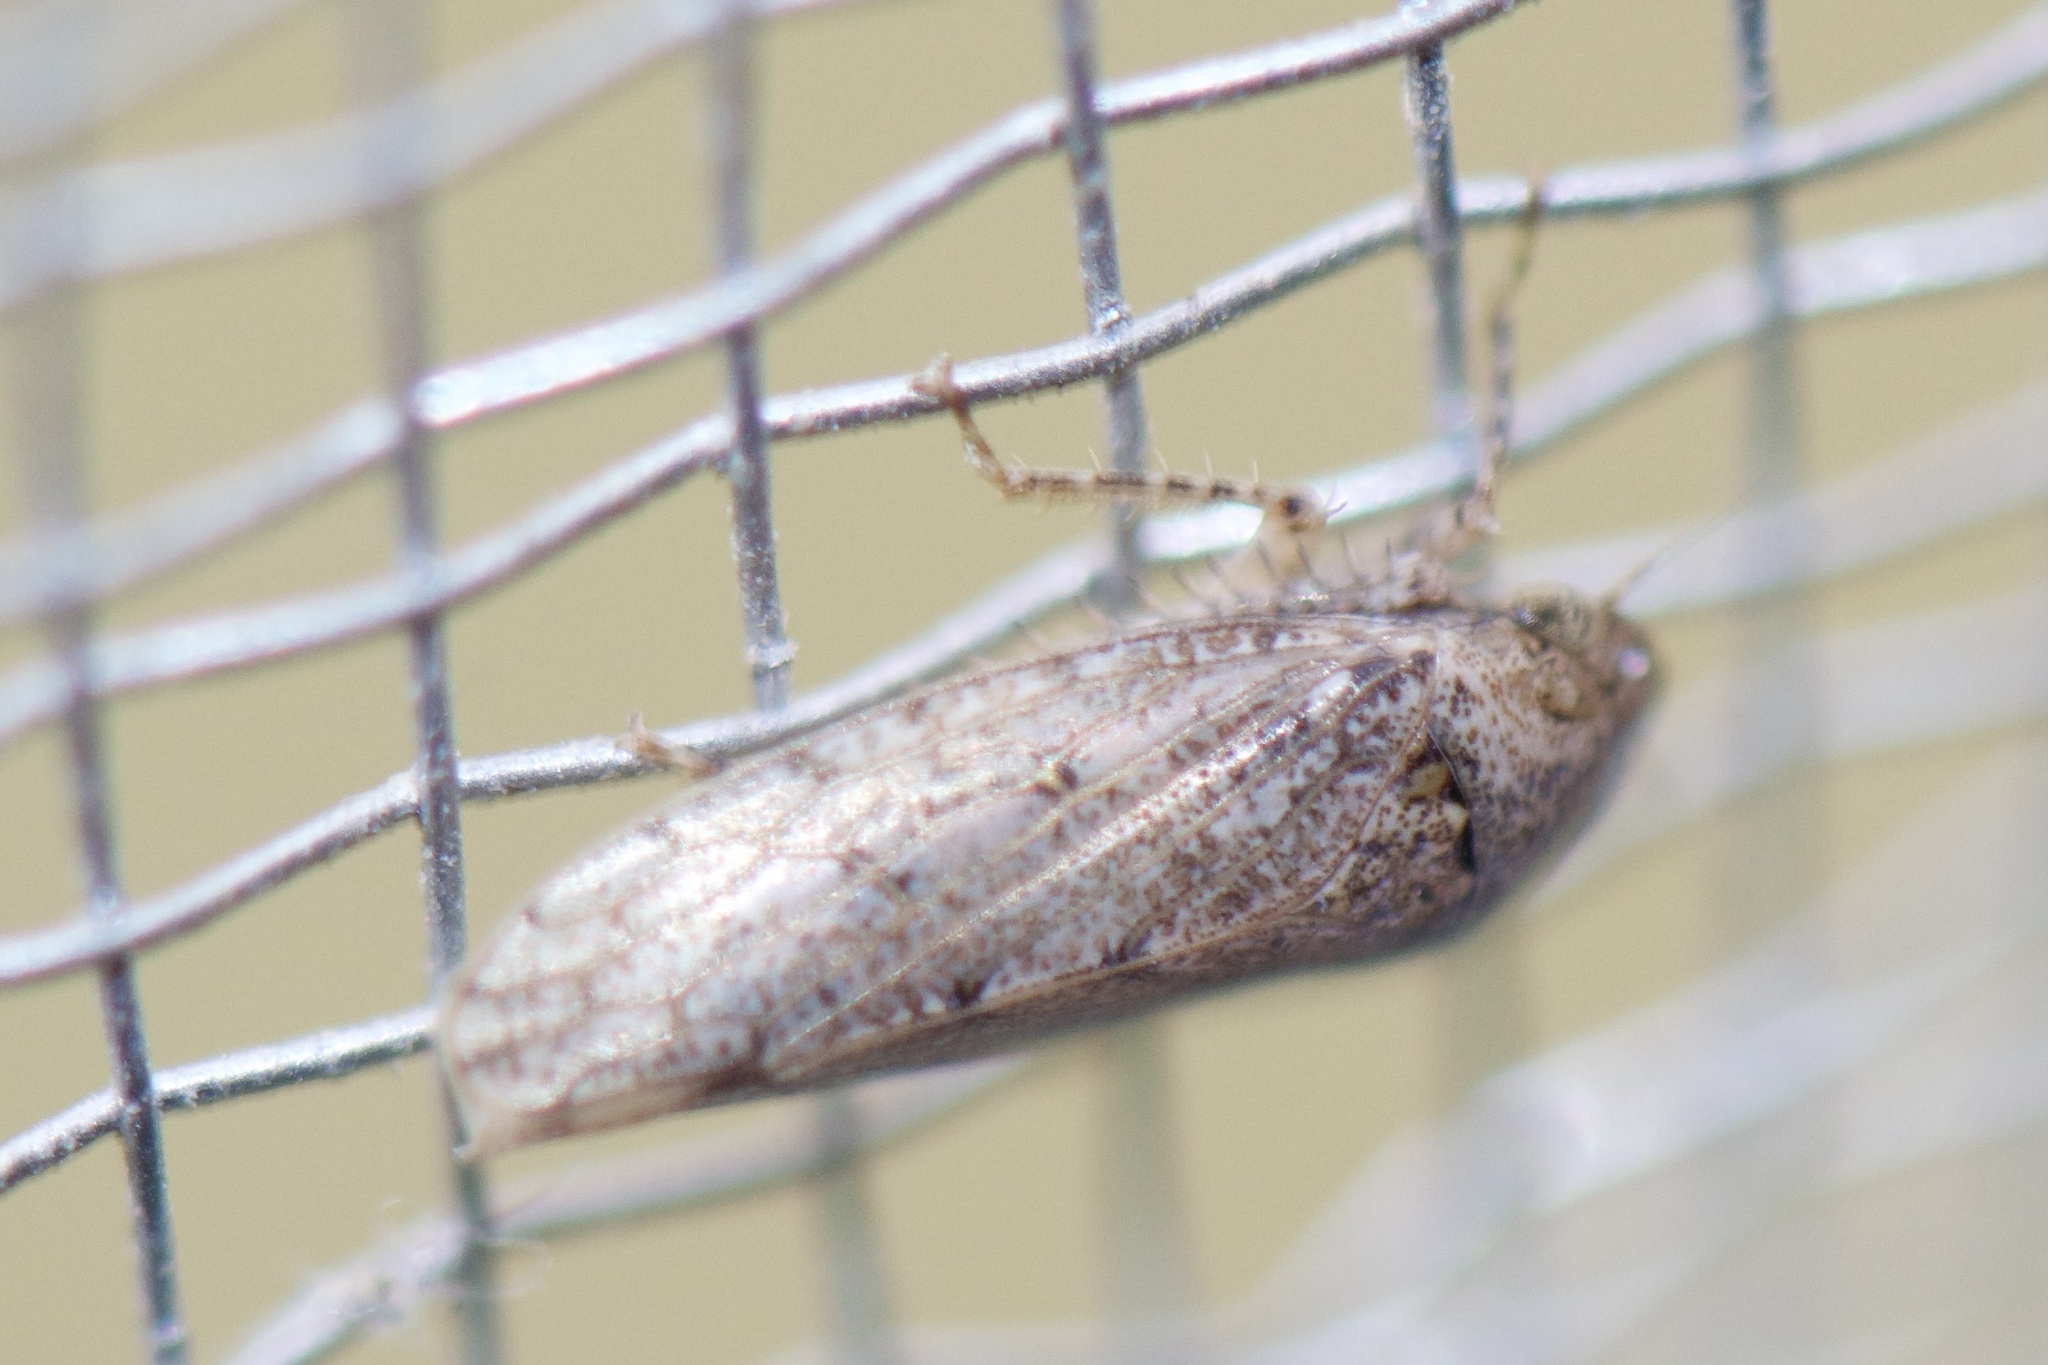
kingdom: Animalia
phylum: Arthropoda
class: Insecta
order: Hemiptera
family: Cicadellidae
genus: Curtara
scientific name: Curtara insularis
